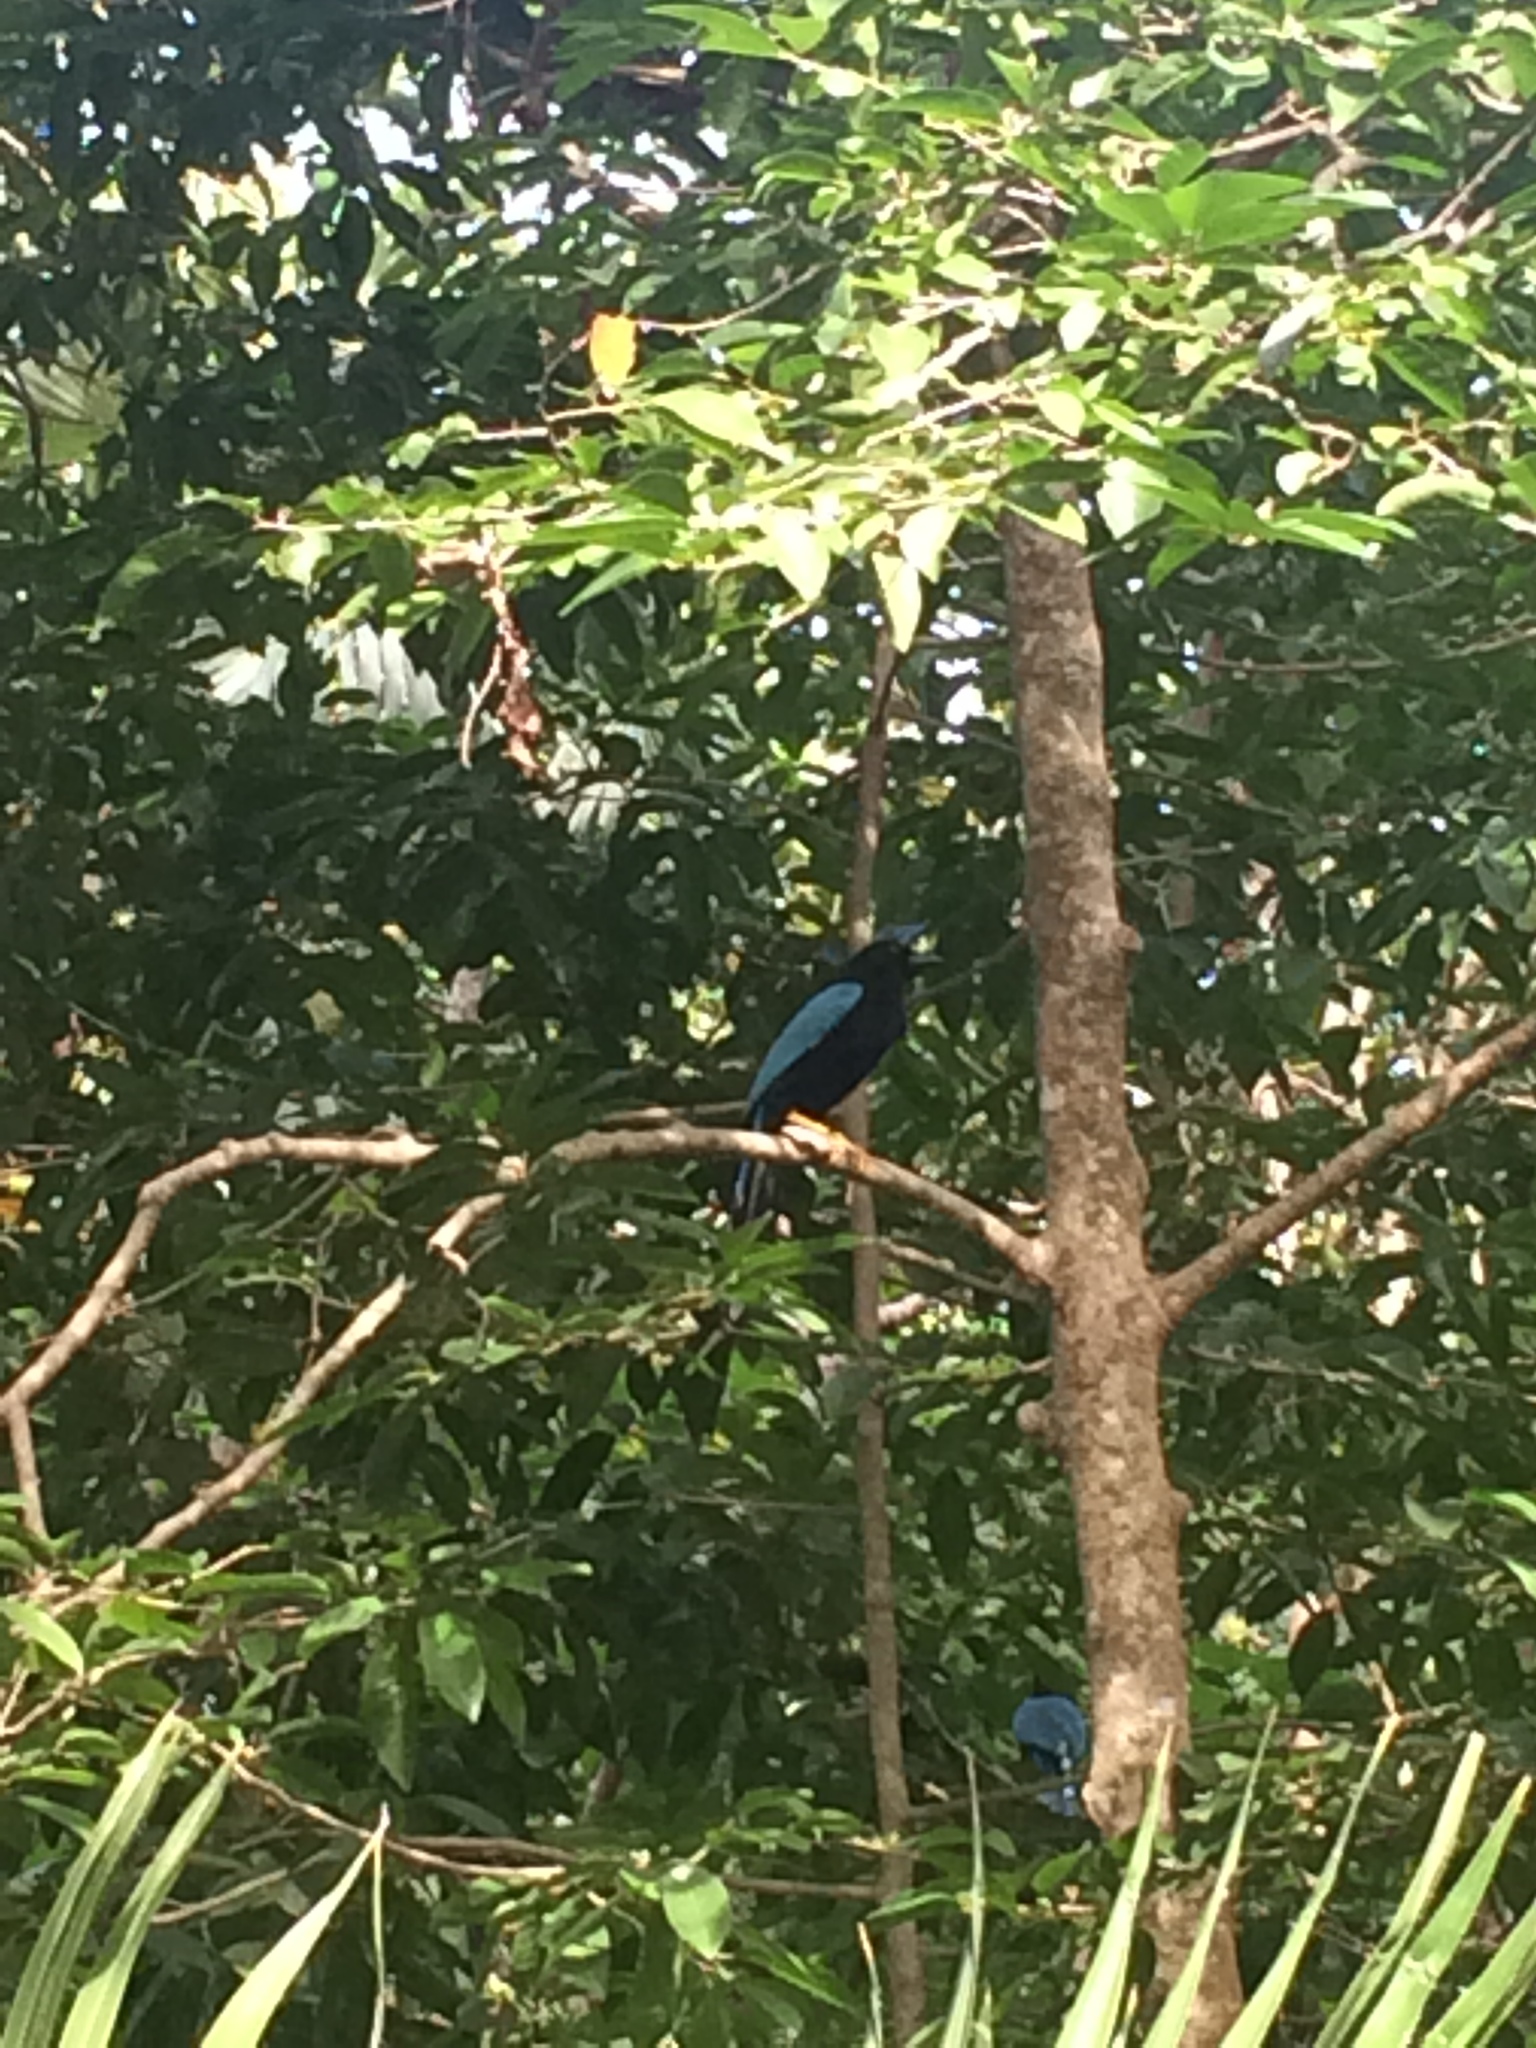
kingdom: Animalia
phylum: Chordata
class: Aves
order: Passeriformes
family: Corvidae
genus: Cyanocorax
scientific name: Cyanocorax yucatanicus
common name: Yucatan jay
